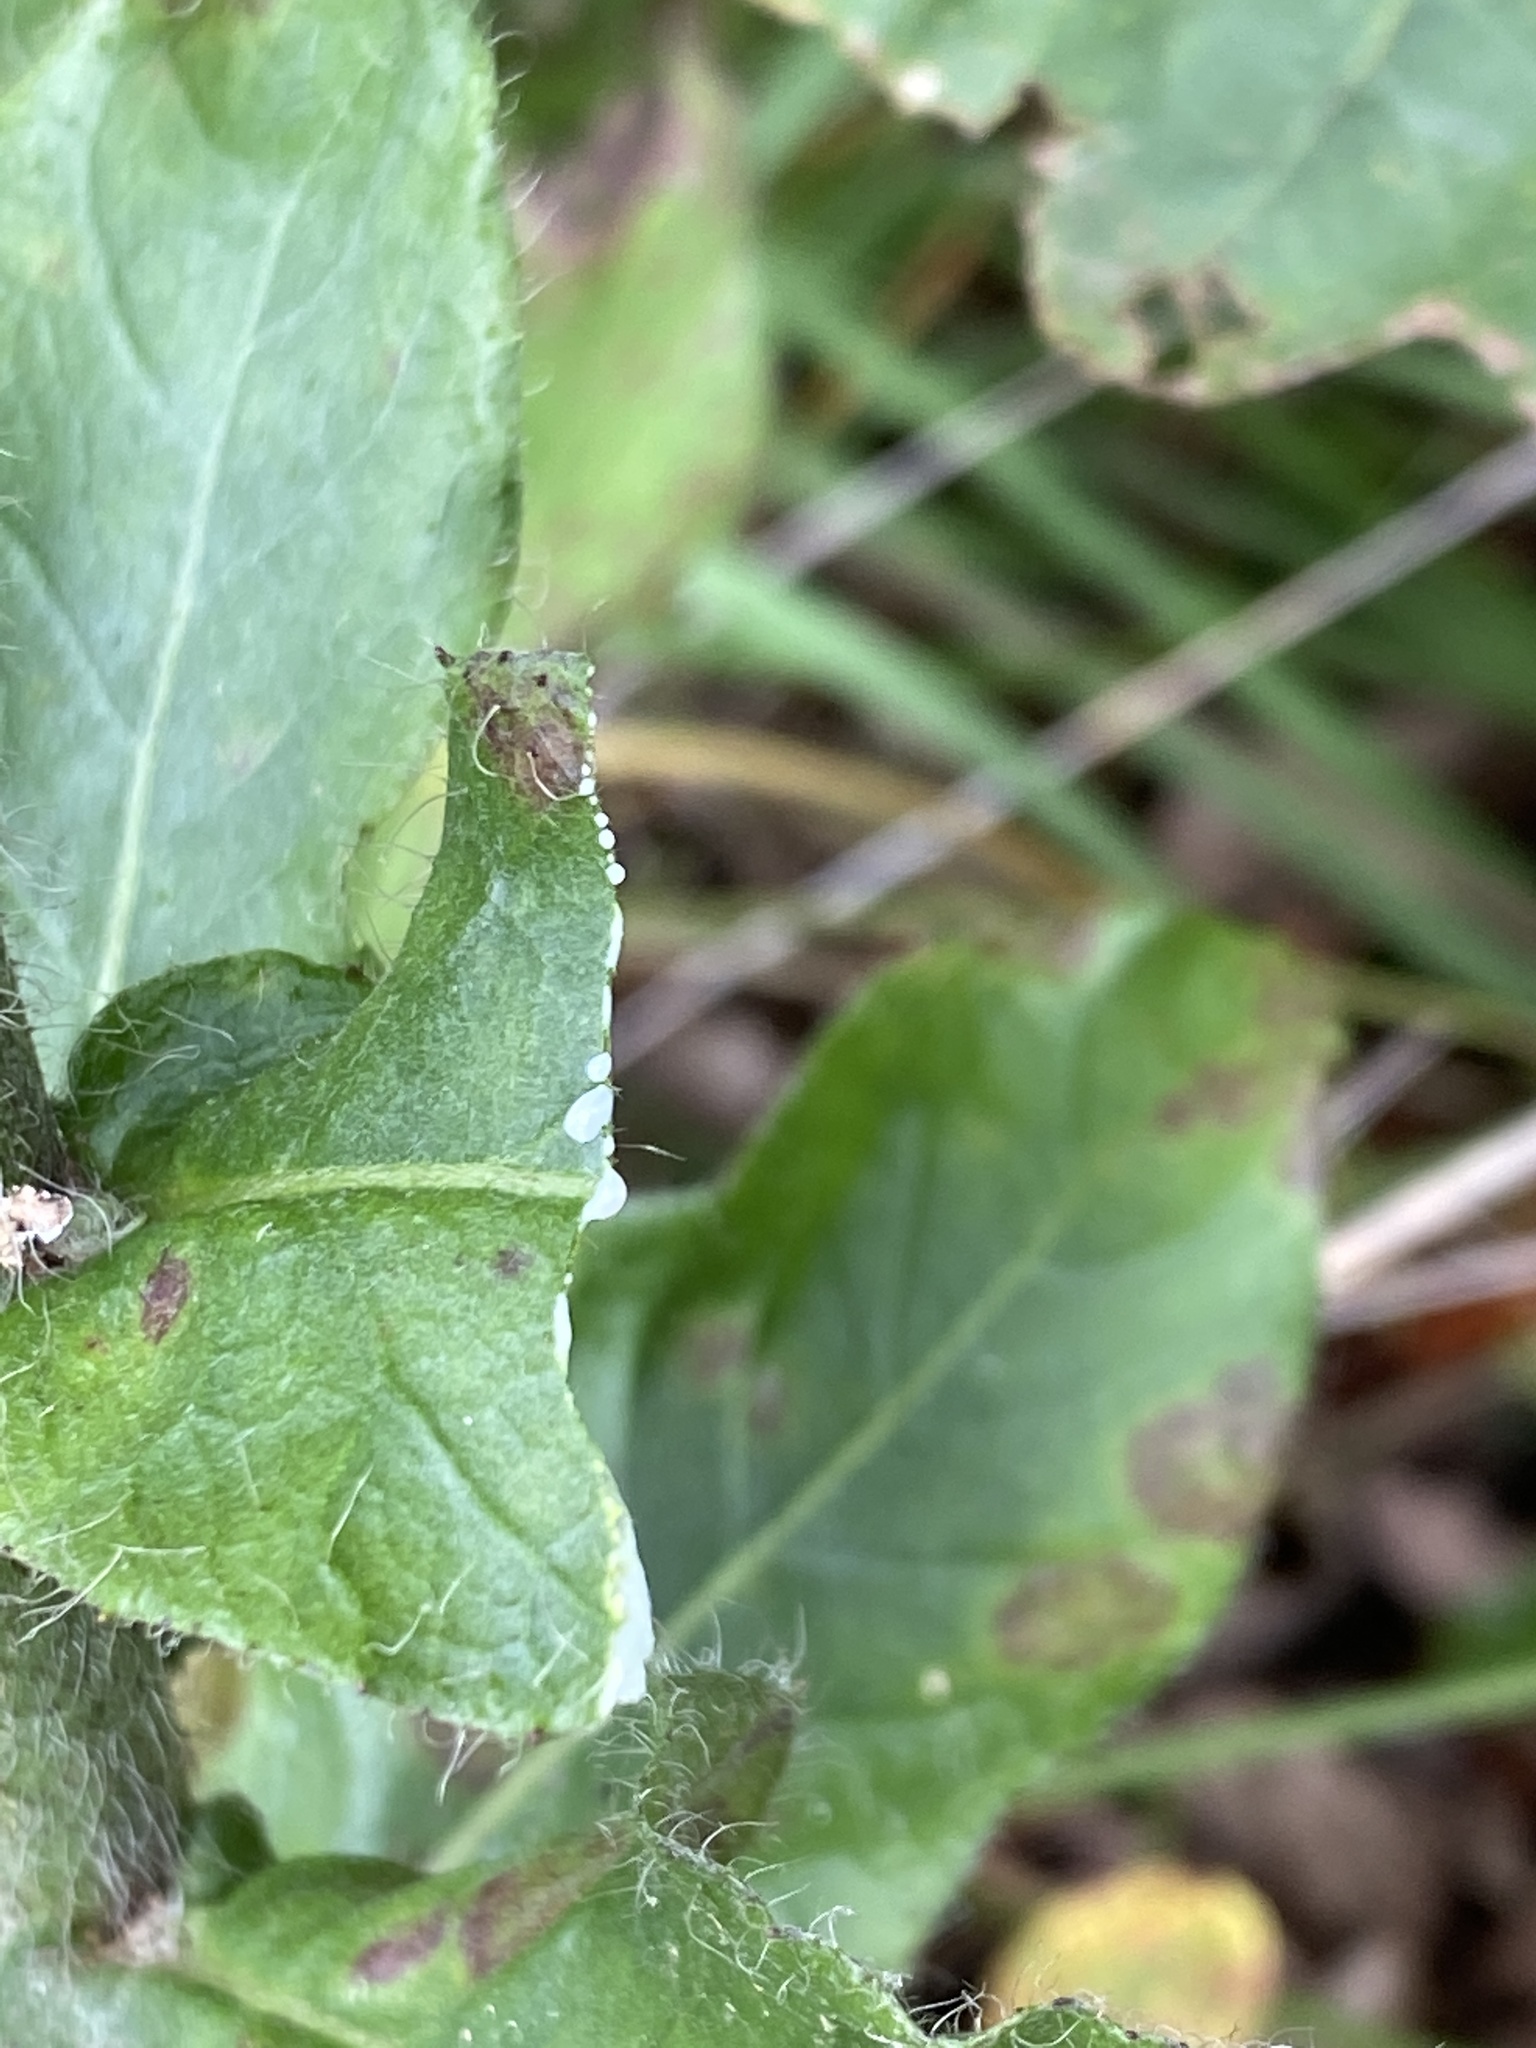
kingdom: Plantae
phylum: Tracheophyta
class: Magnoliopsida
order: Asterales
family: Asteraceae
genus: Hieracium
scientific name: Hieracium gronovii
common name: Beaked hawkweed
